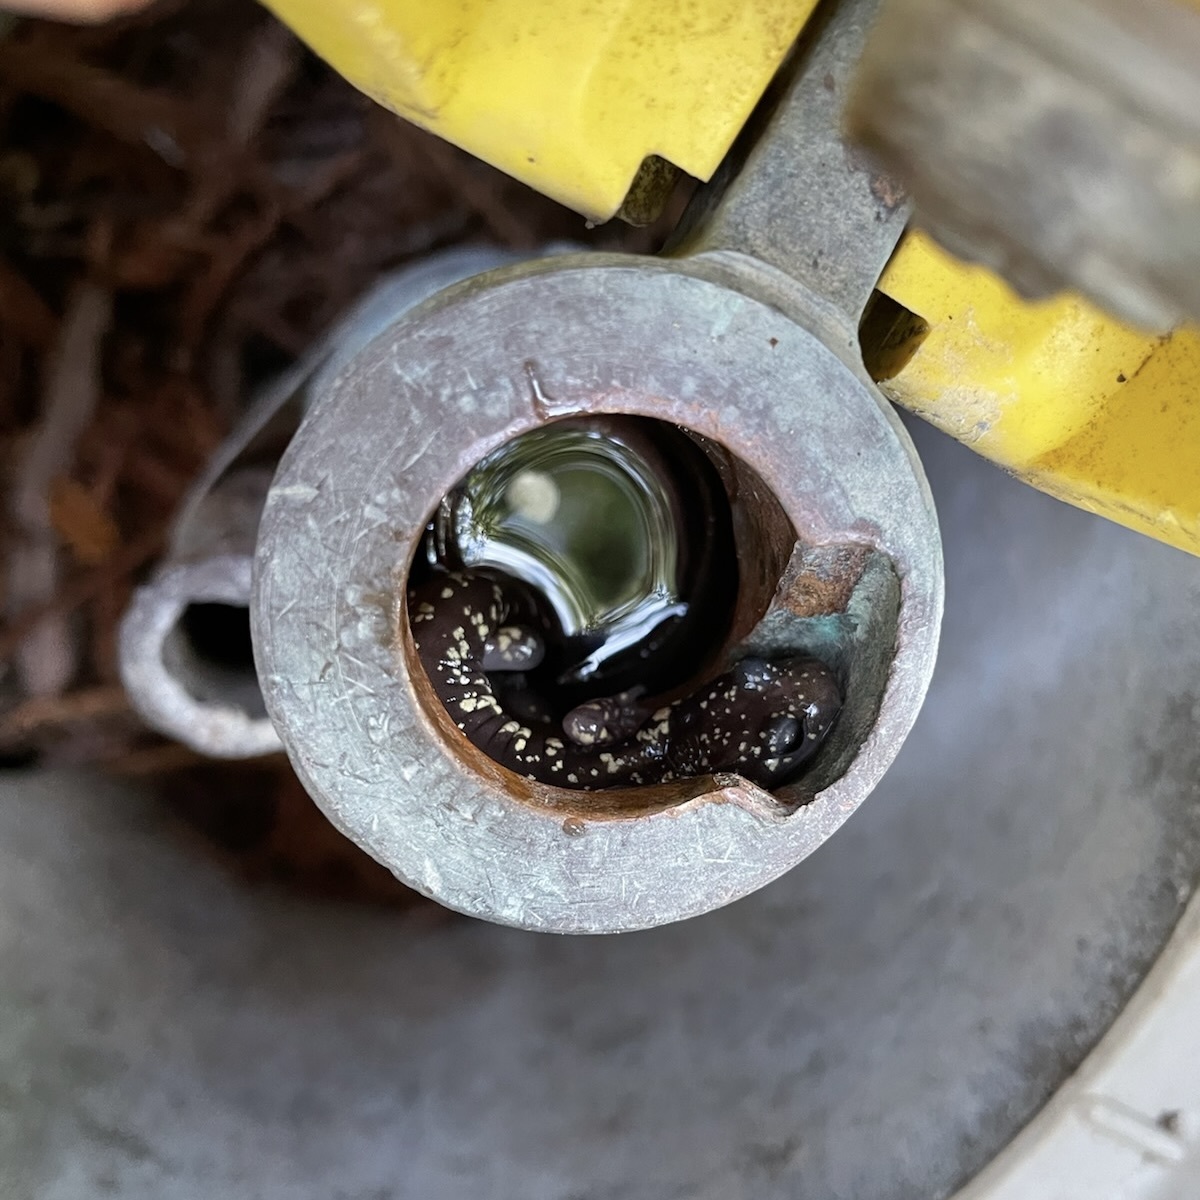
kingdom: Animalia
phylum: Chordata
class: Amphibia
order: Caudata
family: Plethodontidae
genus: Aneides
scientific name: Aneides lugubris
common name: Arboreal salamander
